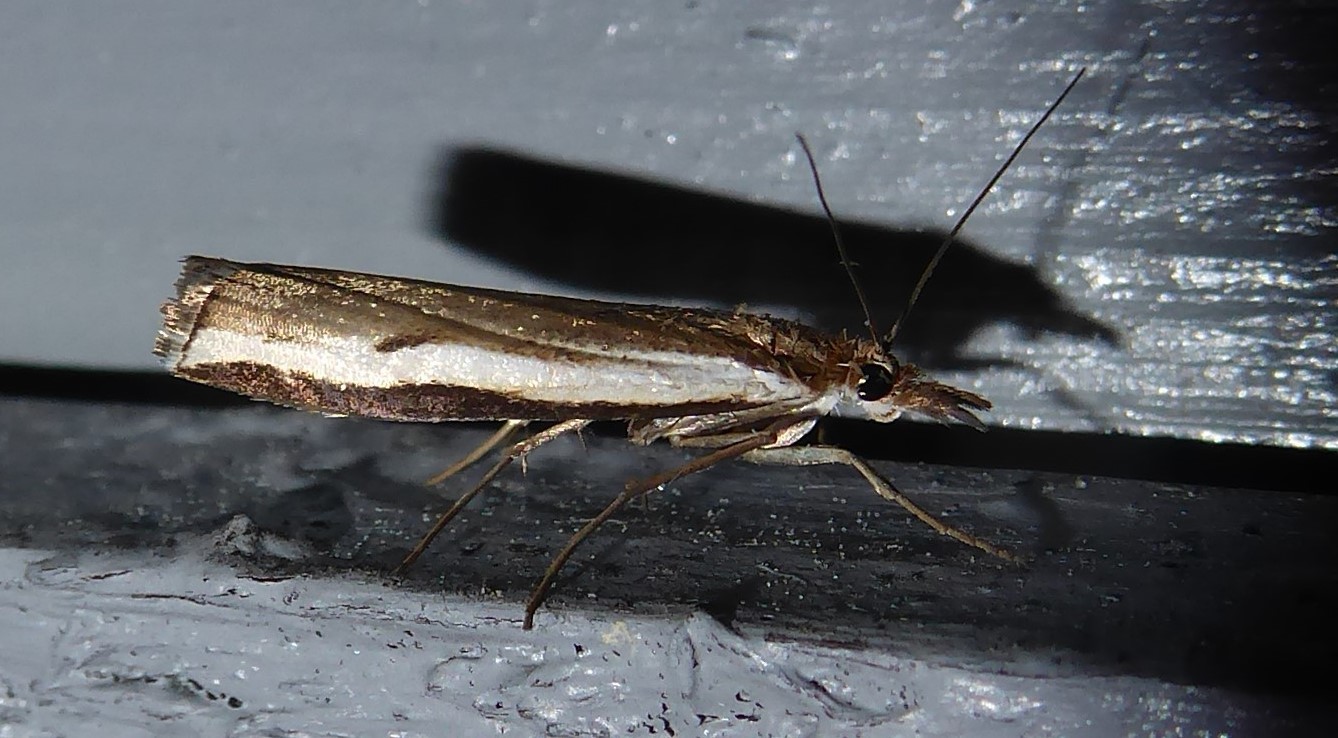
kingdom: Animalia
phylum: Arthropoda
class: Insecta
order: Lepidoptera
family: Crambidae
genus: Orocrambus
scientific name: Orocrambus flexuosellus
